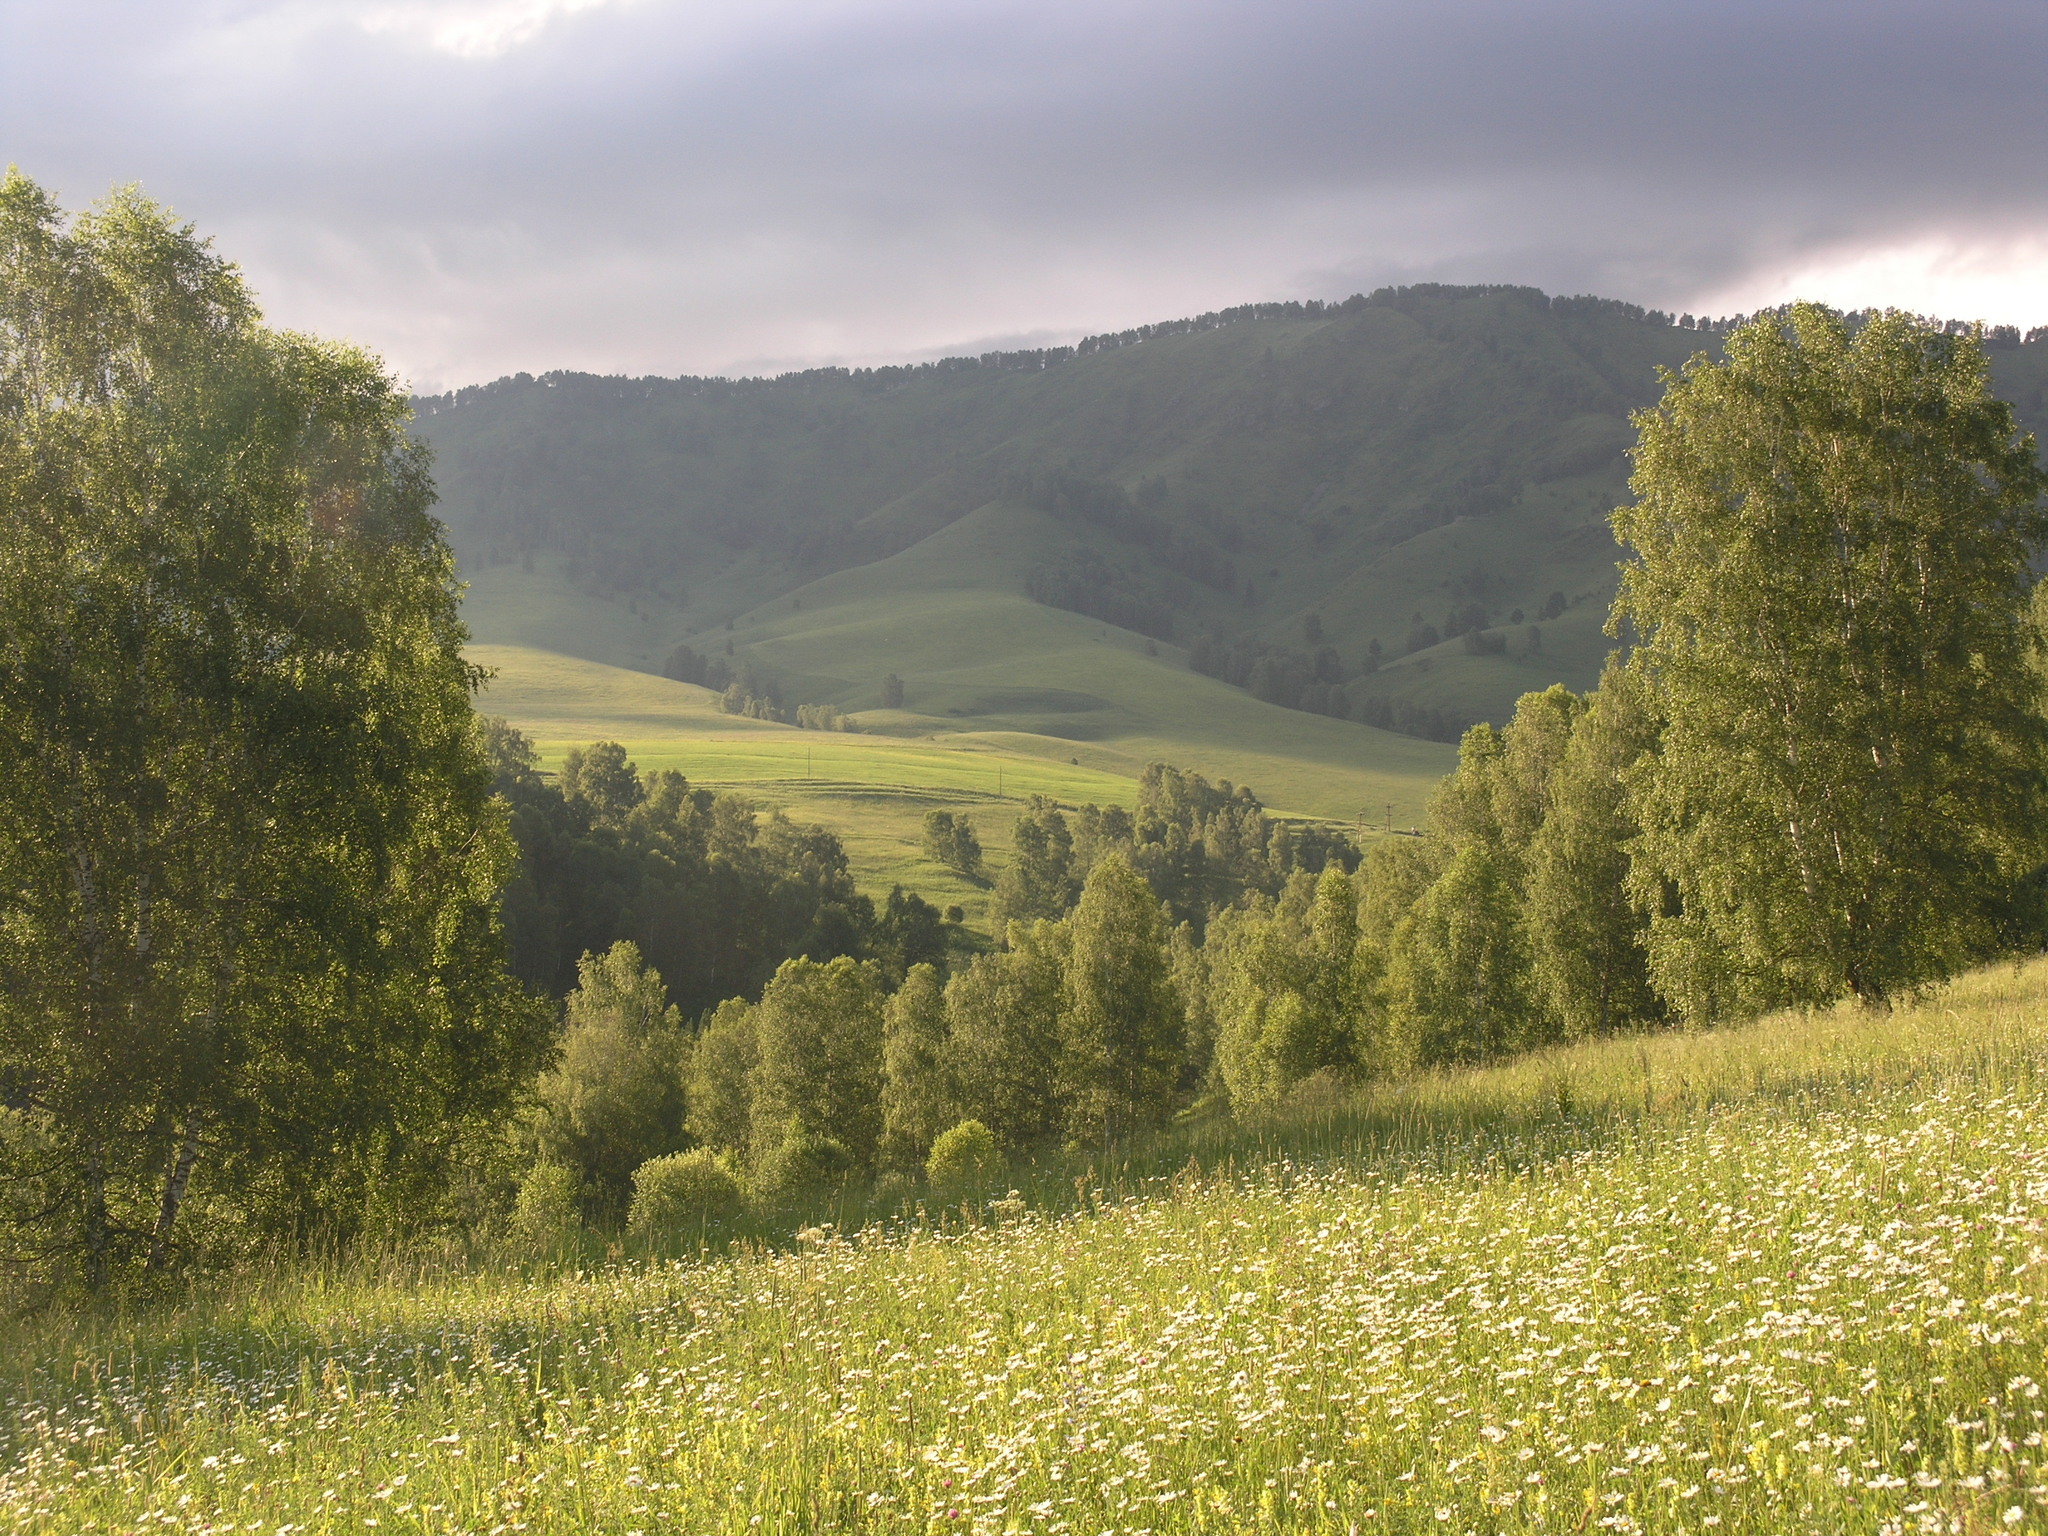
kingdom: Plantae
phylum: Tracheophyta
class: Magnoliopsida
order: Fagales
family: Betulaceae
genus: Betula
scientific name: Betula pendula
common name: Silver birch
